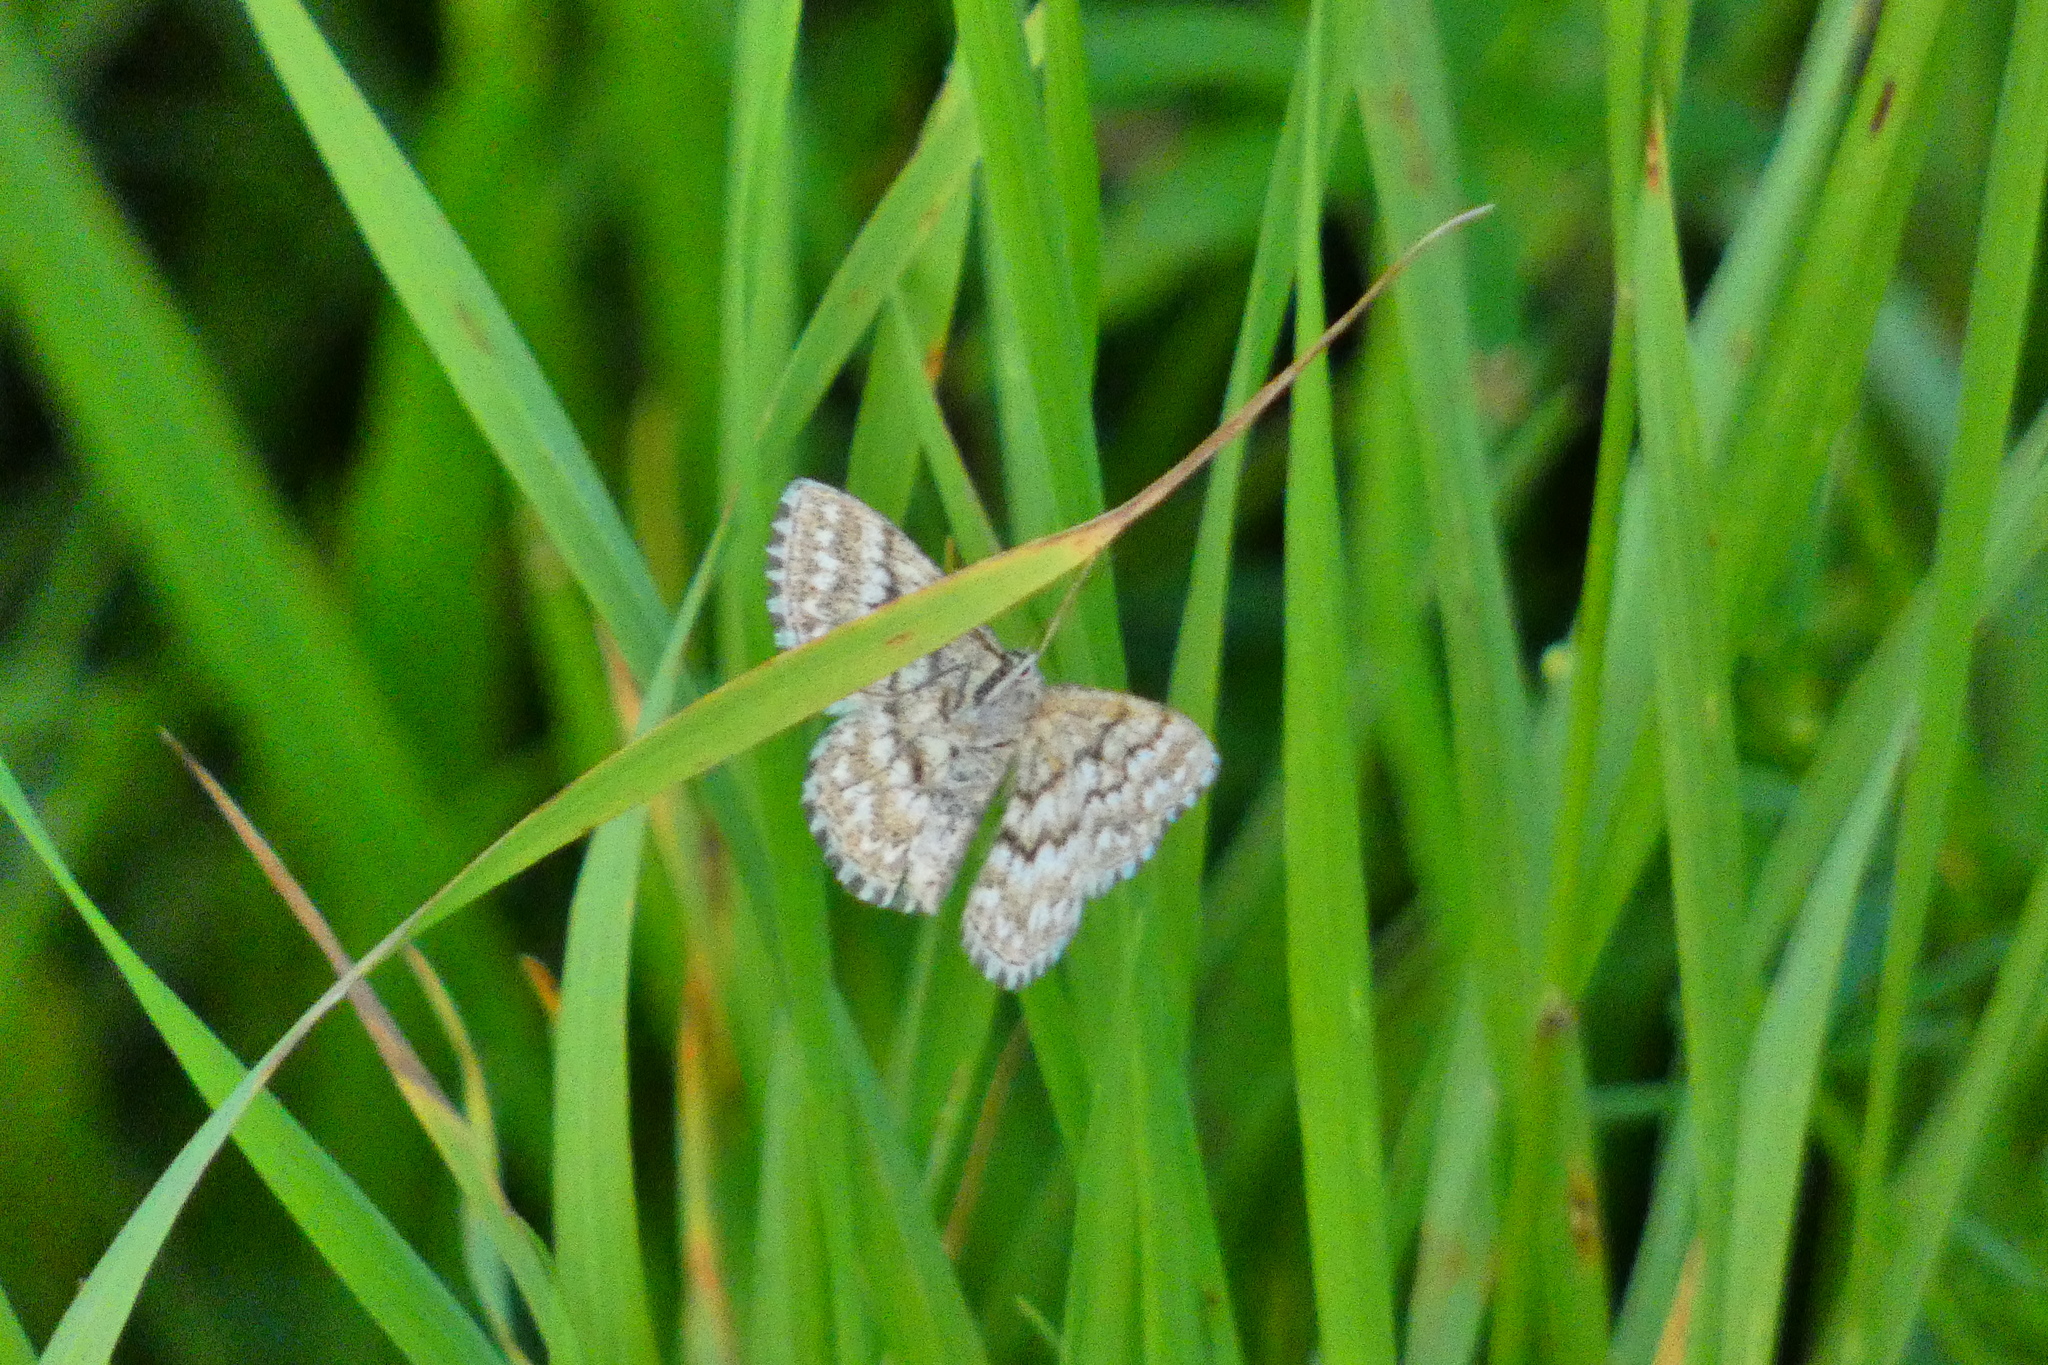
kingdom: Animalia
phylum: Arthropoda
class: Insecta
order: Lepidoptera
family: Geometridae
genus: Scopula
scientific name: Scopula immorata
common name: Lewes wave
